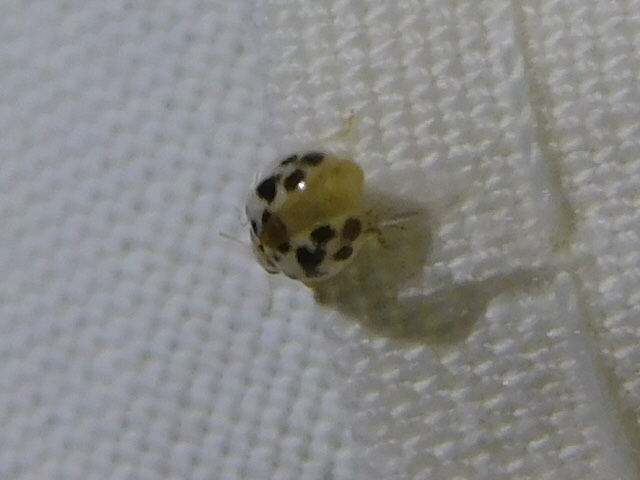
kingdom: Animalia
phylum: Arthropoda
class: Insecta
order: Coleoptera
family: Coccinellidae
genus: Psyllobora
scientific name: Psyllobora parvinotata
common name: Small-spotted psyllobora
